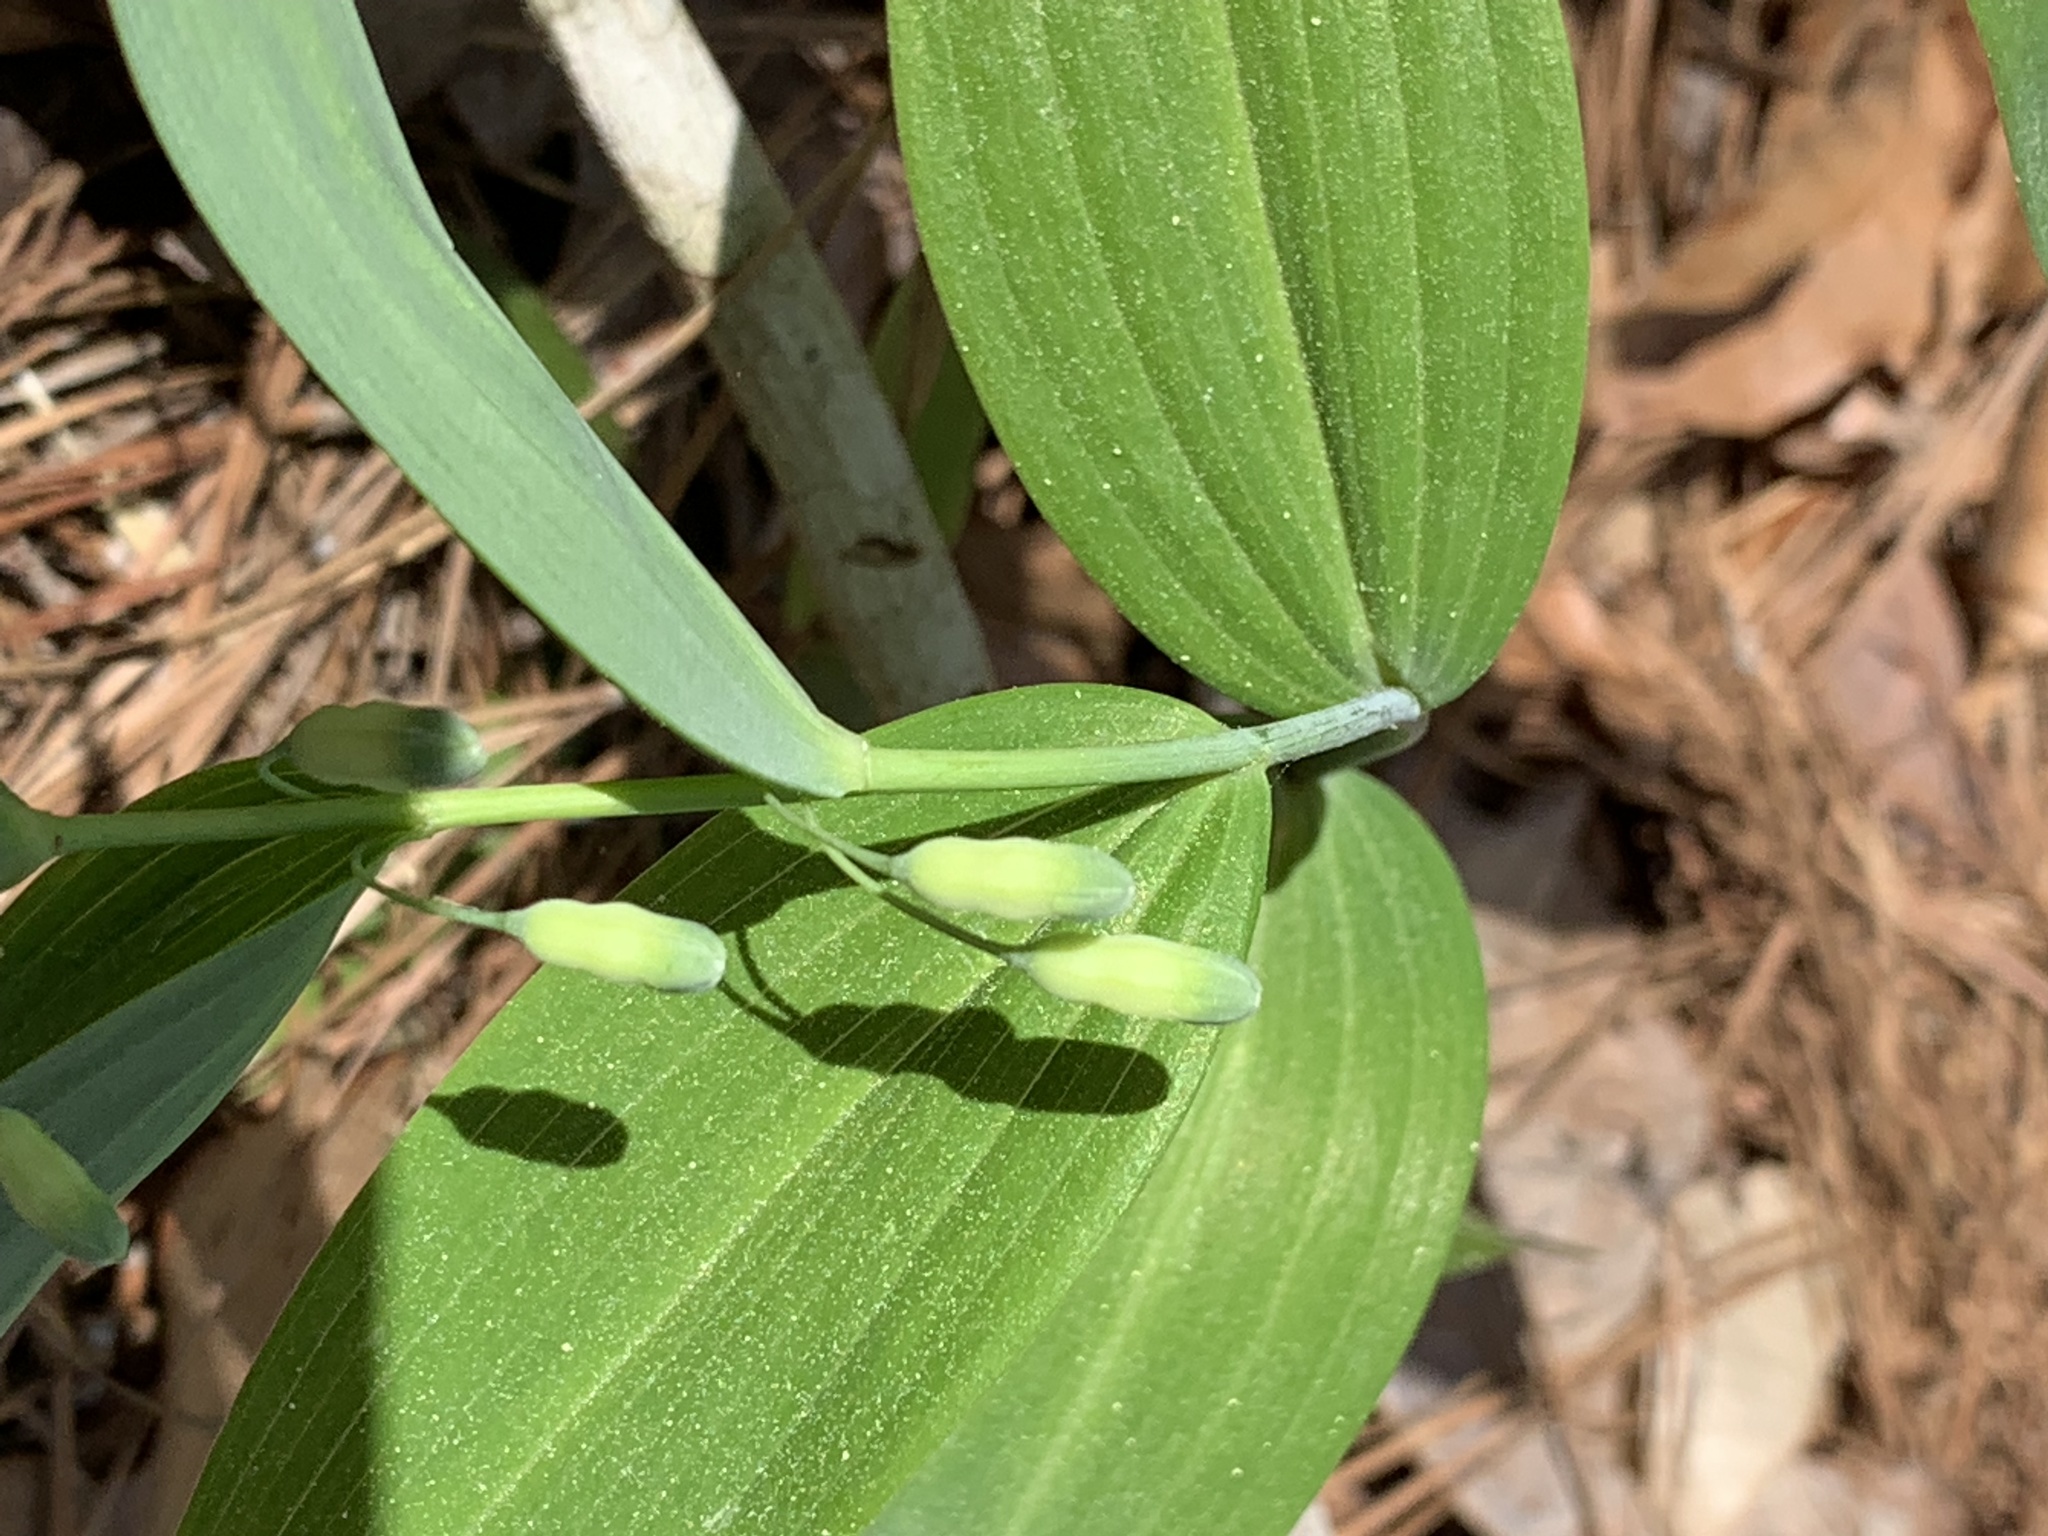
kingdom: Plantae
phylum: Tracheophyta
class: Liliopsida
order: Asparagales
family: Asparagaceae
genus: Polygonatum
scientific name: Polygonatum biflorum
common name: American solomon's-seal
